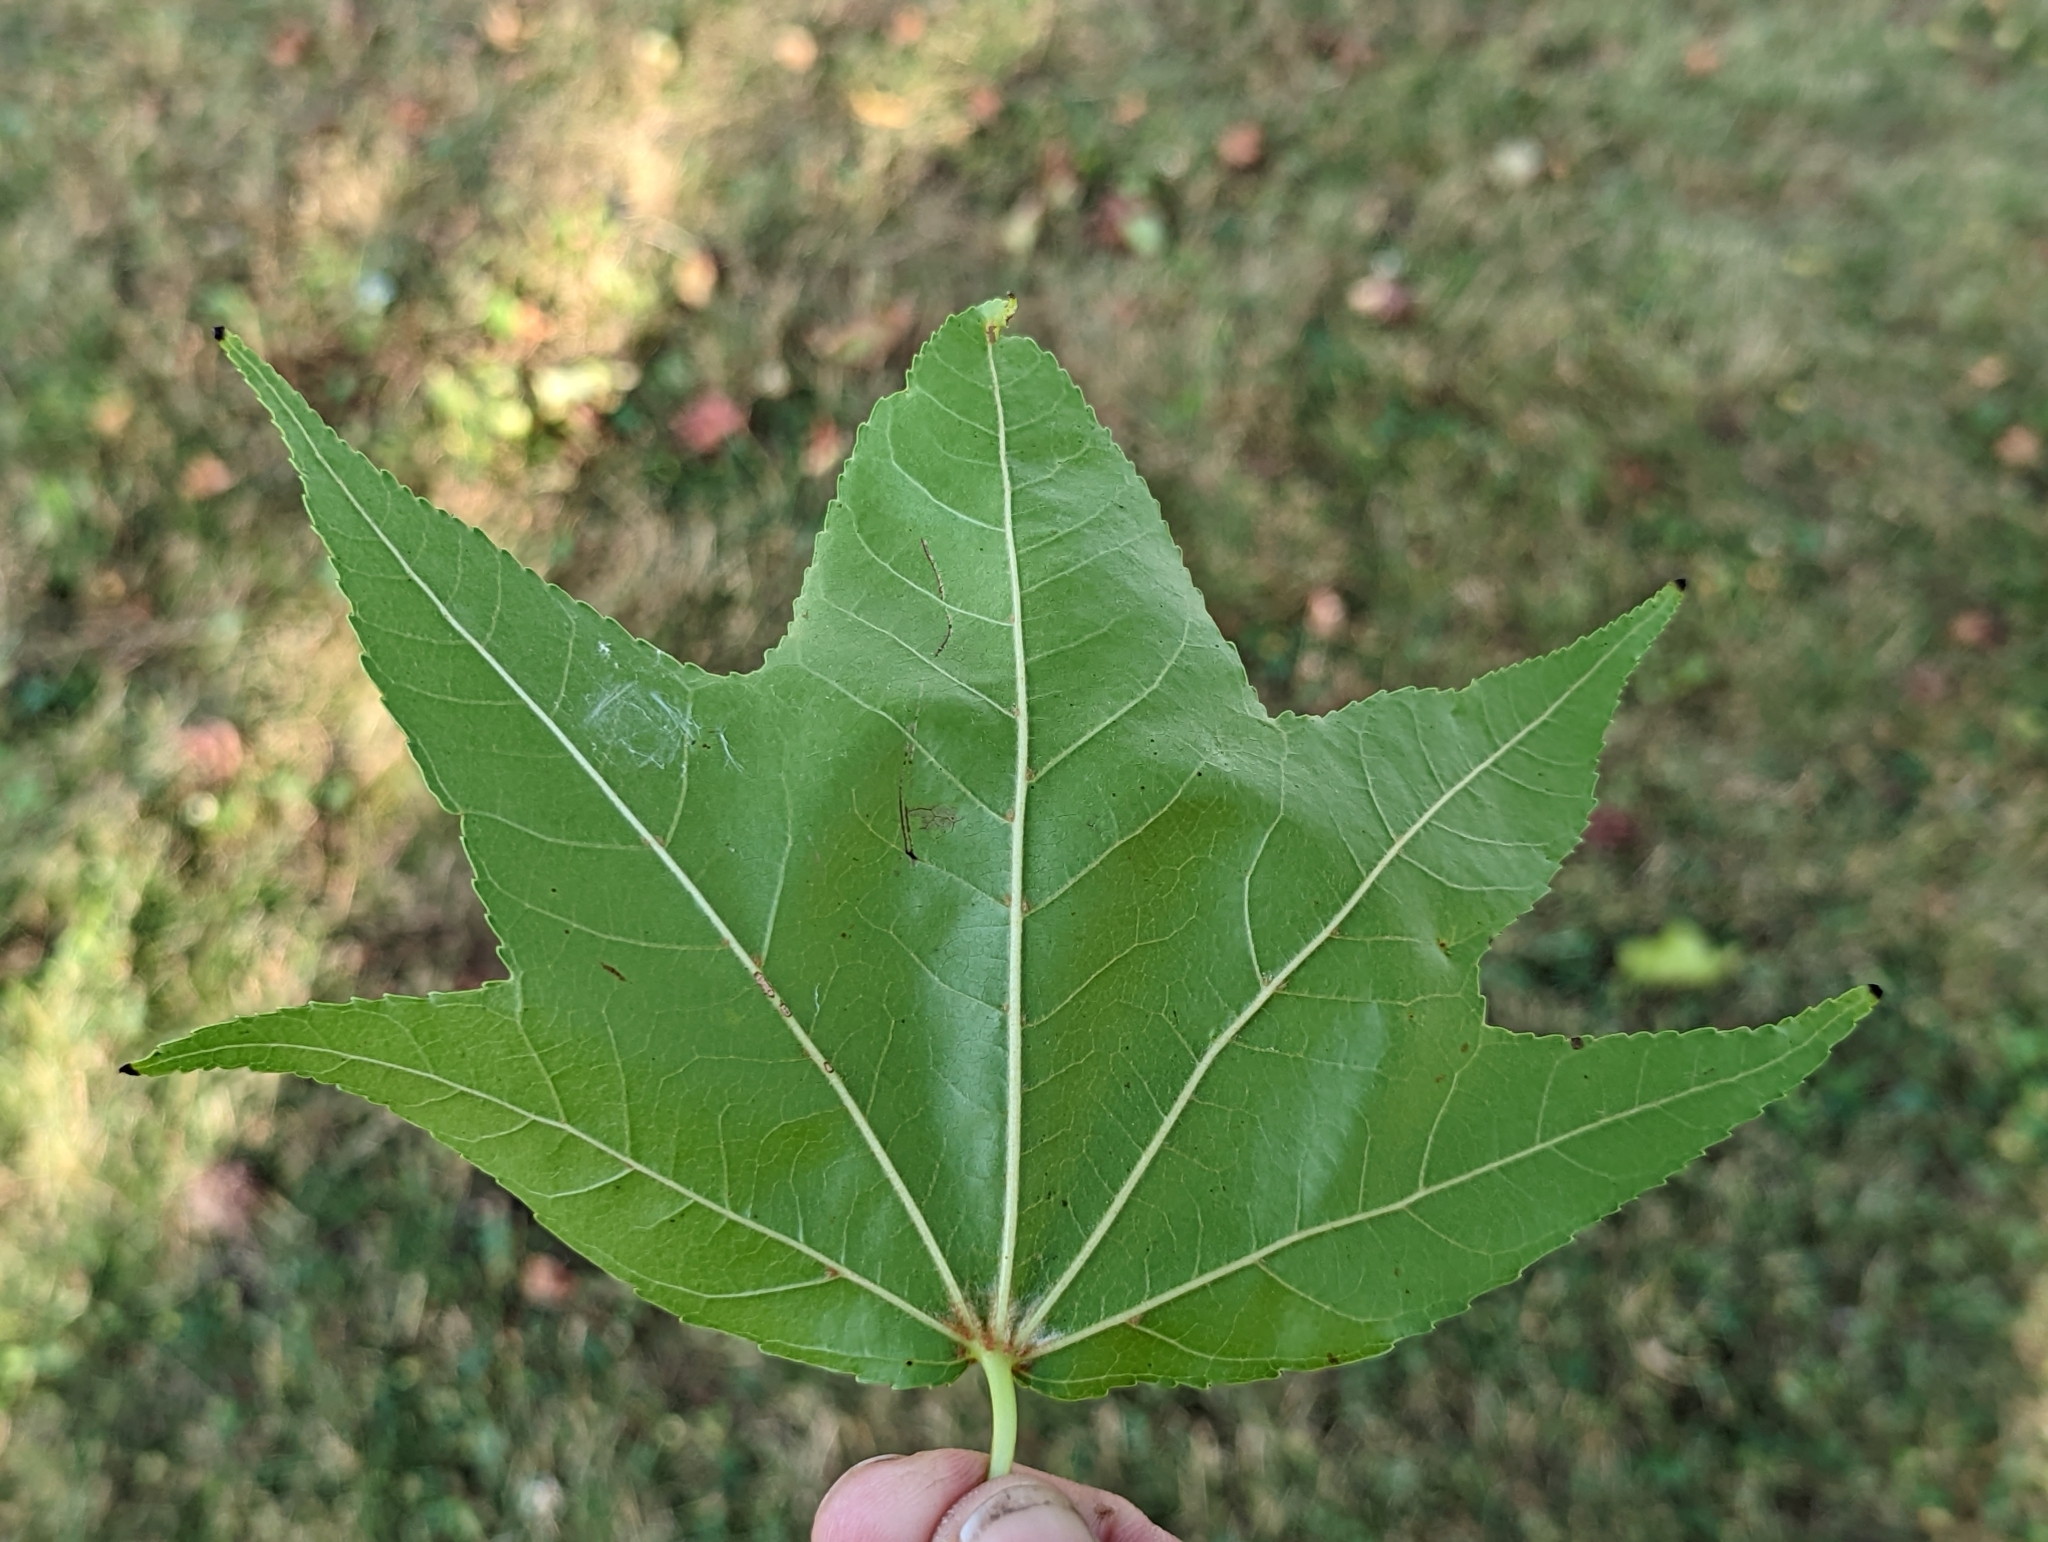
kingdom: Plantae
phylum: Tracheophyta
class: Magnoliopsida
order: Saxifragales
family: Altingiaceae
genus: Liquidambar
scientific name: Liquidambar styraciflua
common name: Sweet gum
